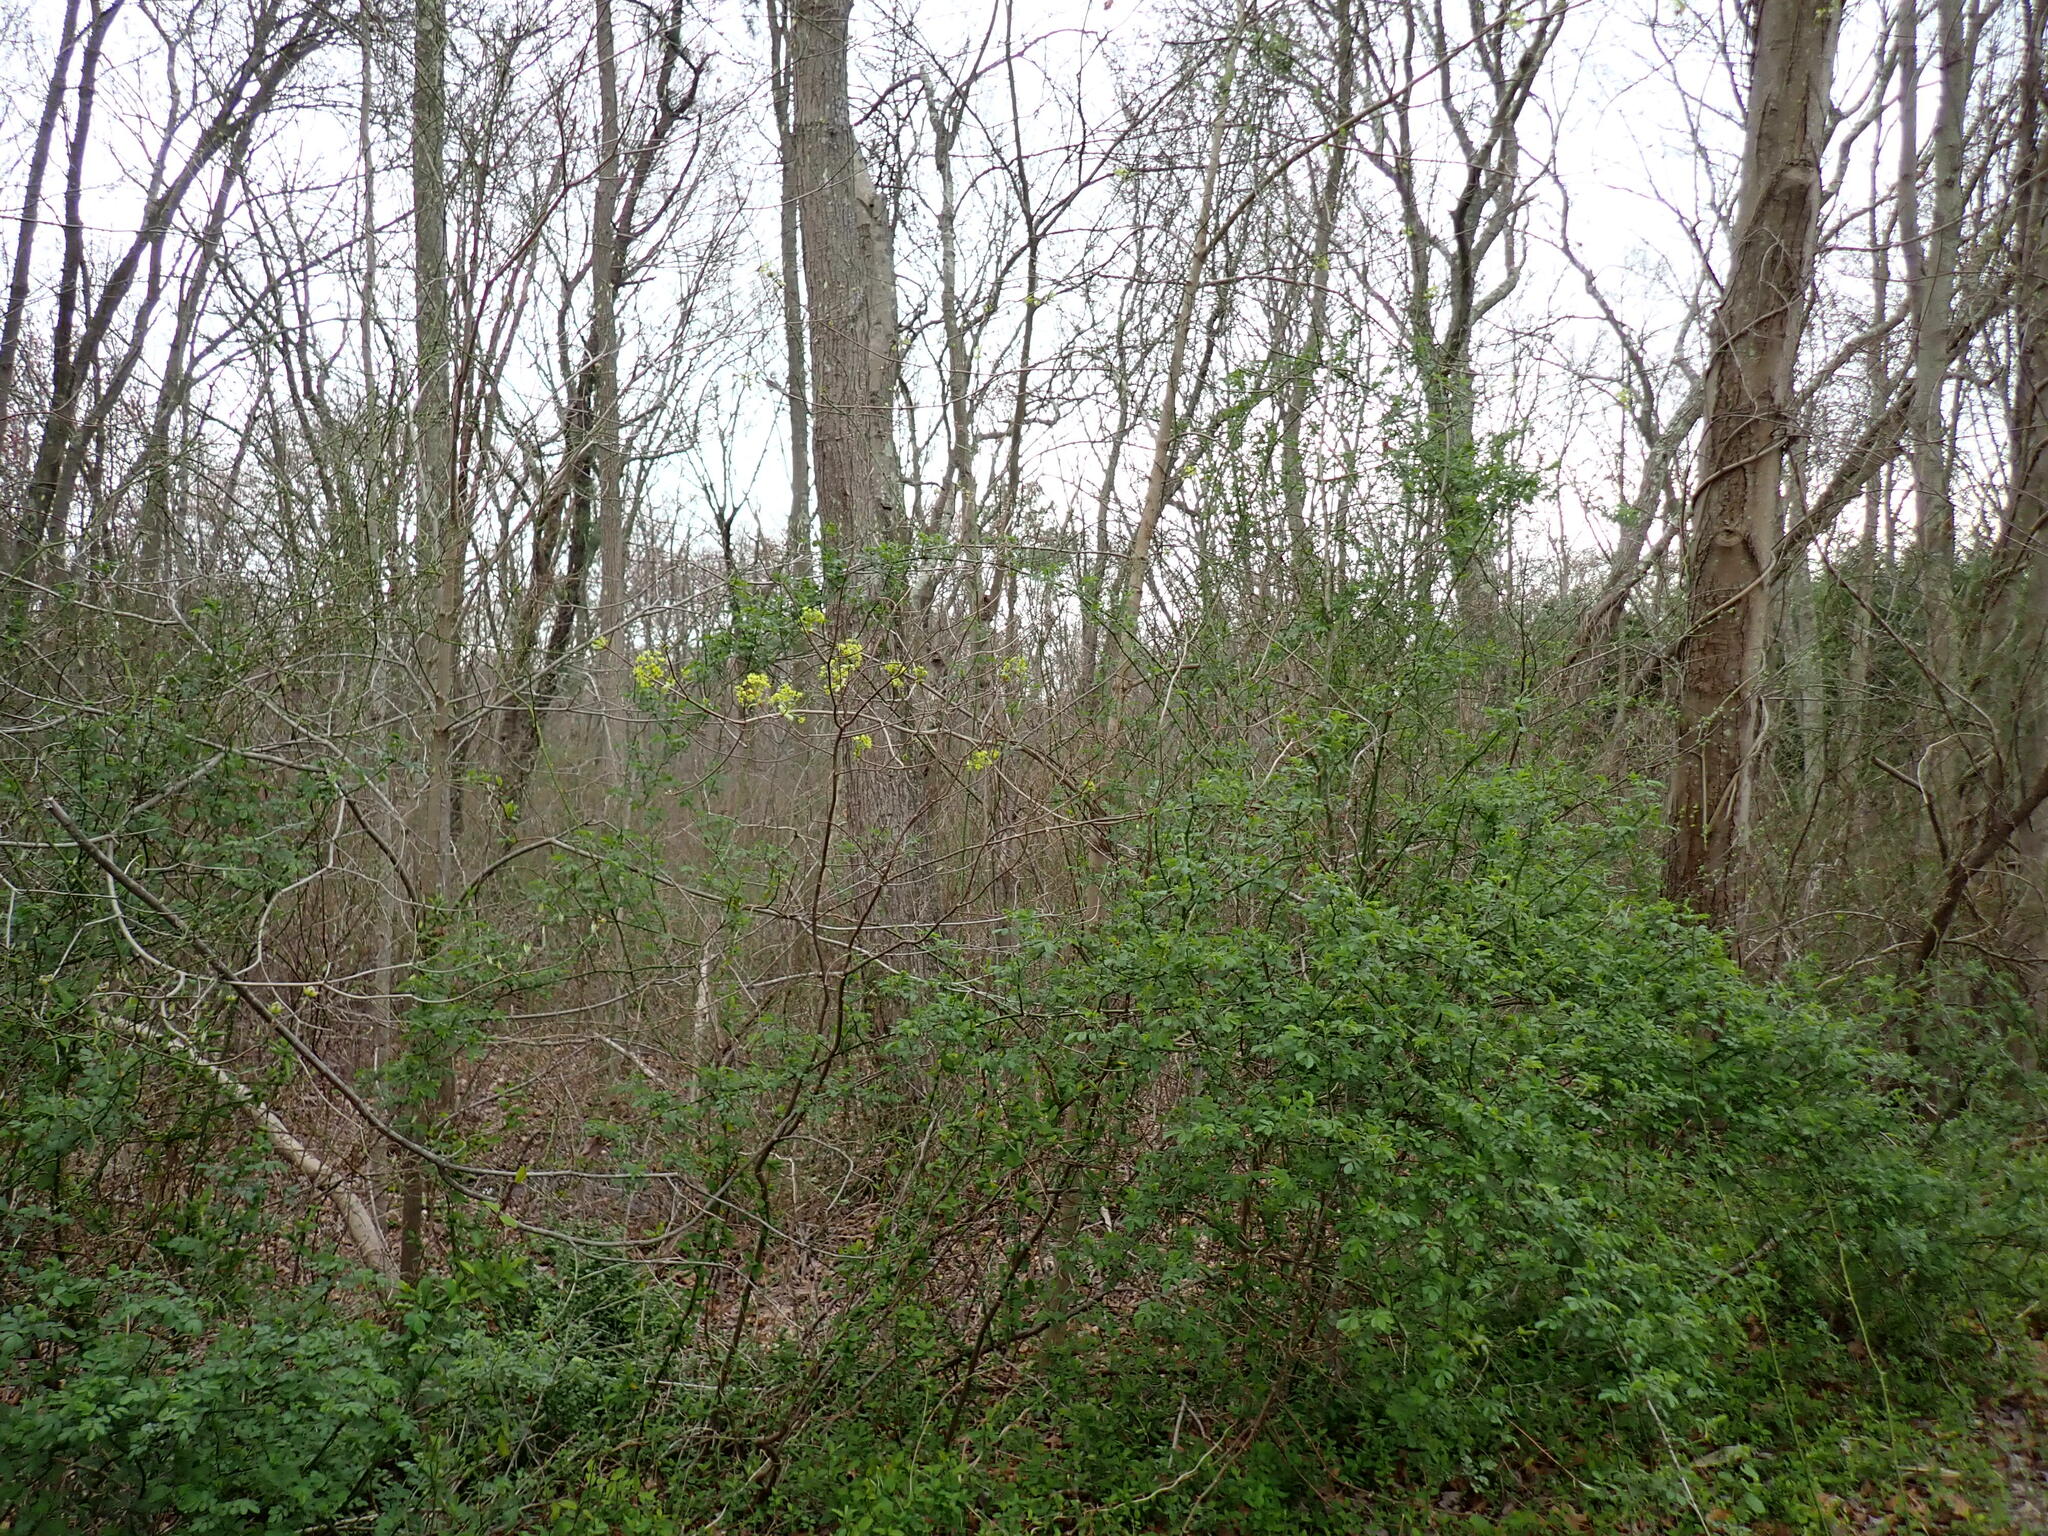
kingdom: Plantae
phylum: Tracheophyta
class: Magnoliopsida
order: Sapindales
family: Sapindaceae
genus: Acer
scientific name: Acer platanoides
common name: Norway maple
